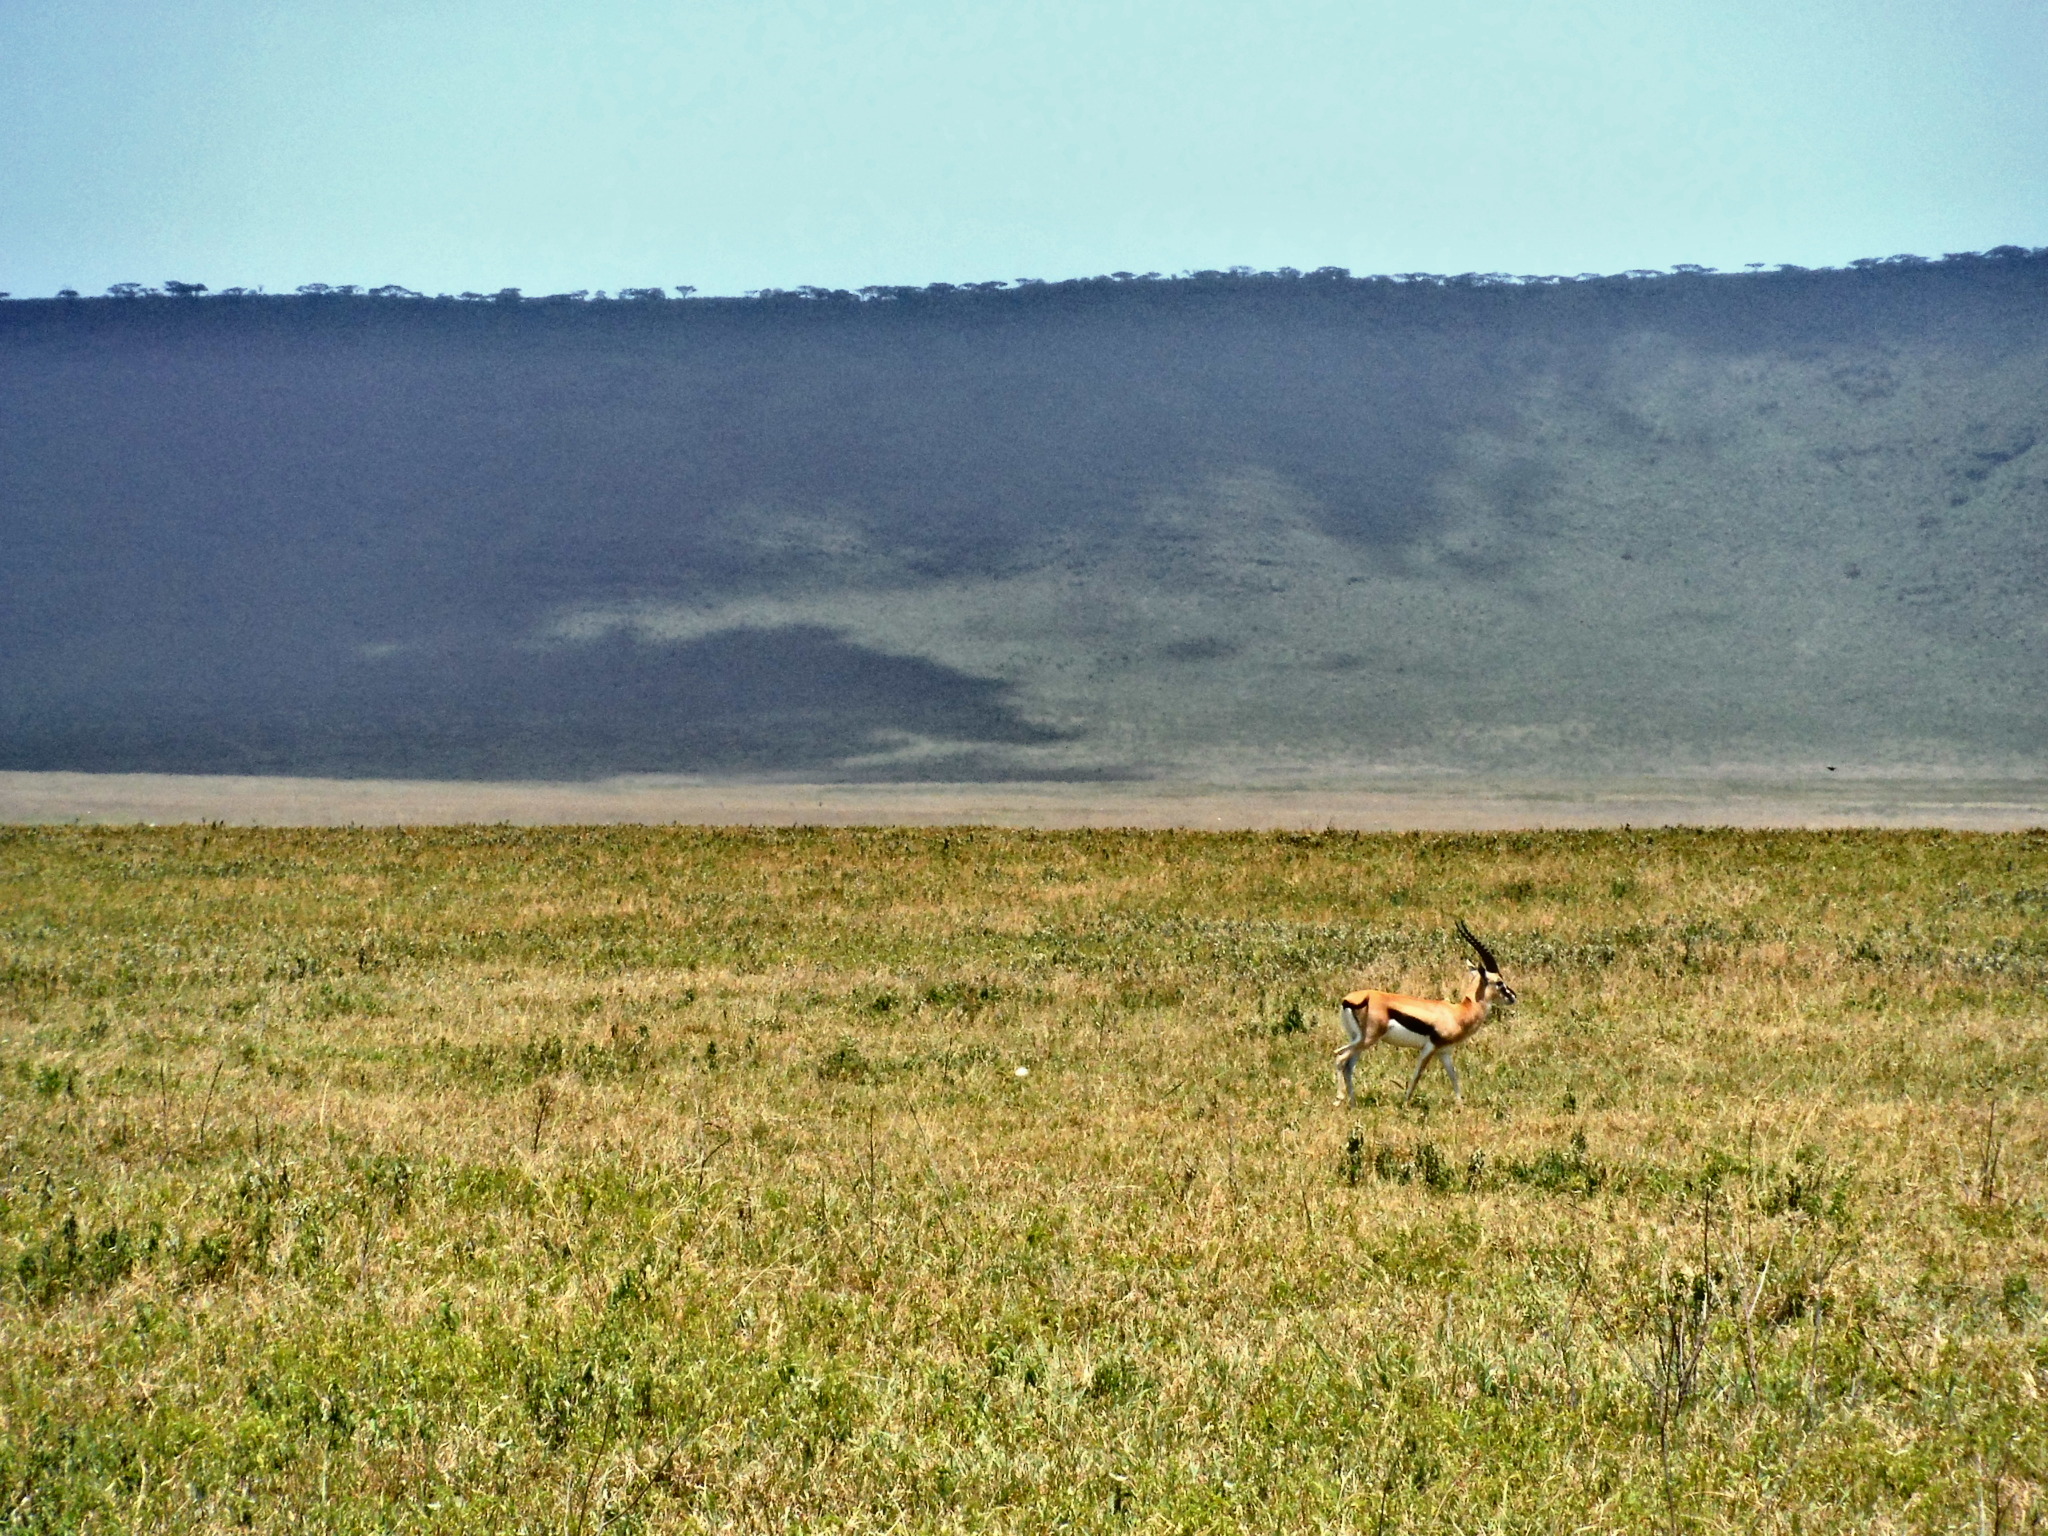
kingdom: Animalia
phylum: Chordata
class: Mammalia
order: Artiodactyla
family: Bovidae
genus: Eudorcas
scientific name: Eudorcas thomsonii
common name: Thomson's gazelle
